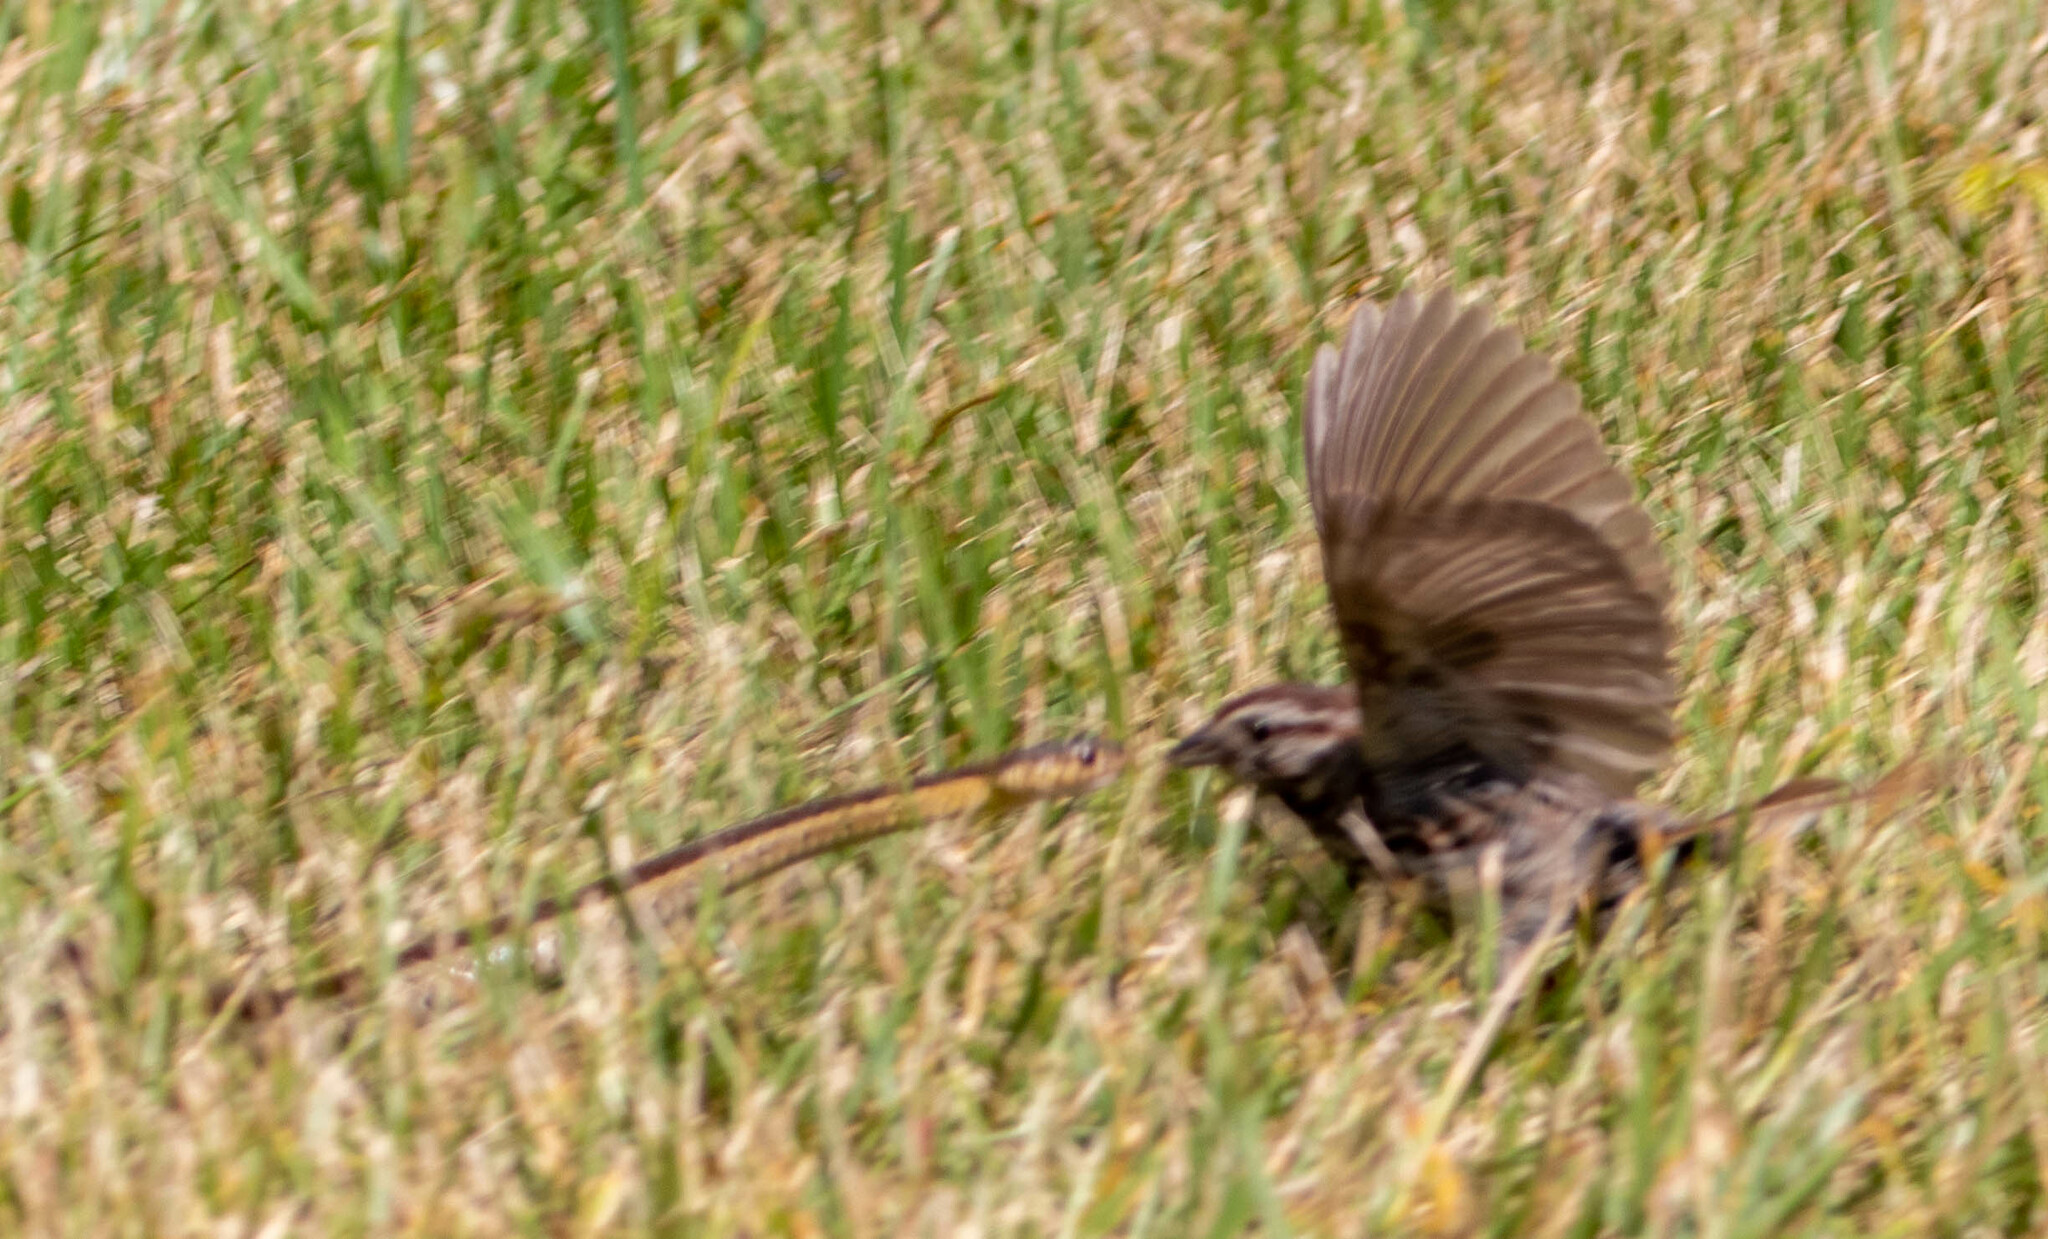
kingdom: Animalia
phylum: Chordata
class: Aves
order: Passeriformes
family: Passerellidae
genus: Melospiza
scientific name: Melospiza melodia
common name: Song sparrow
